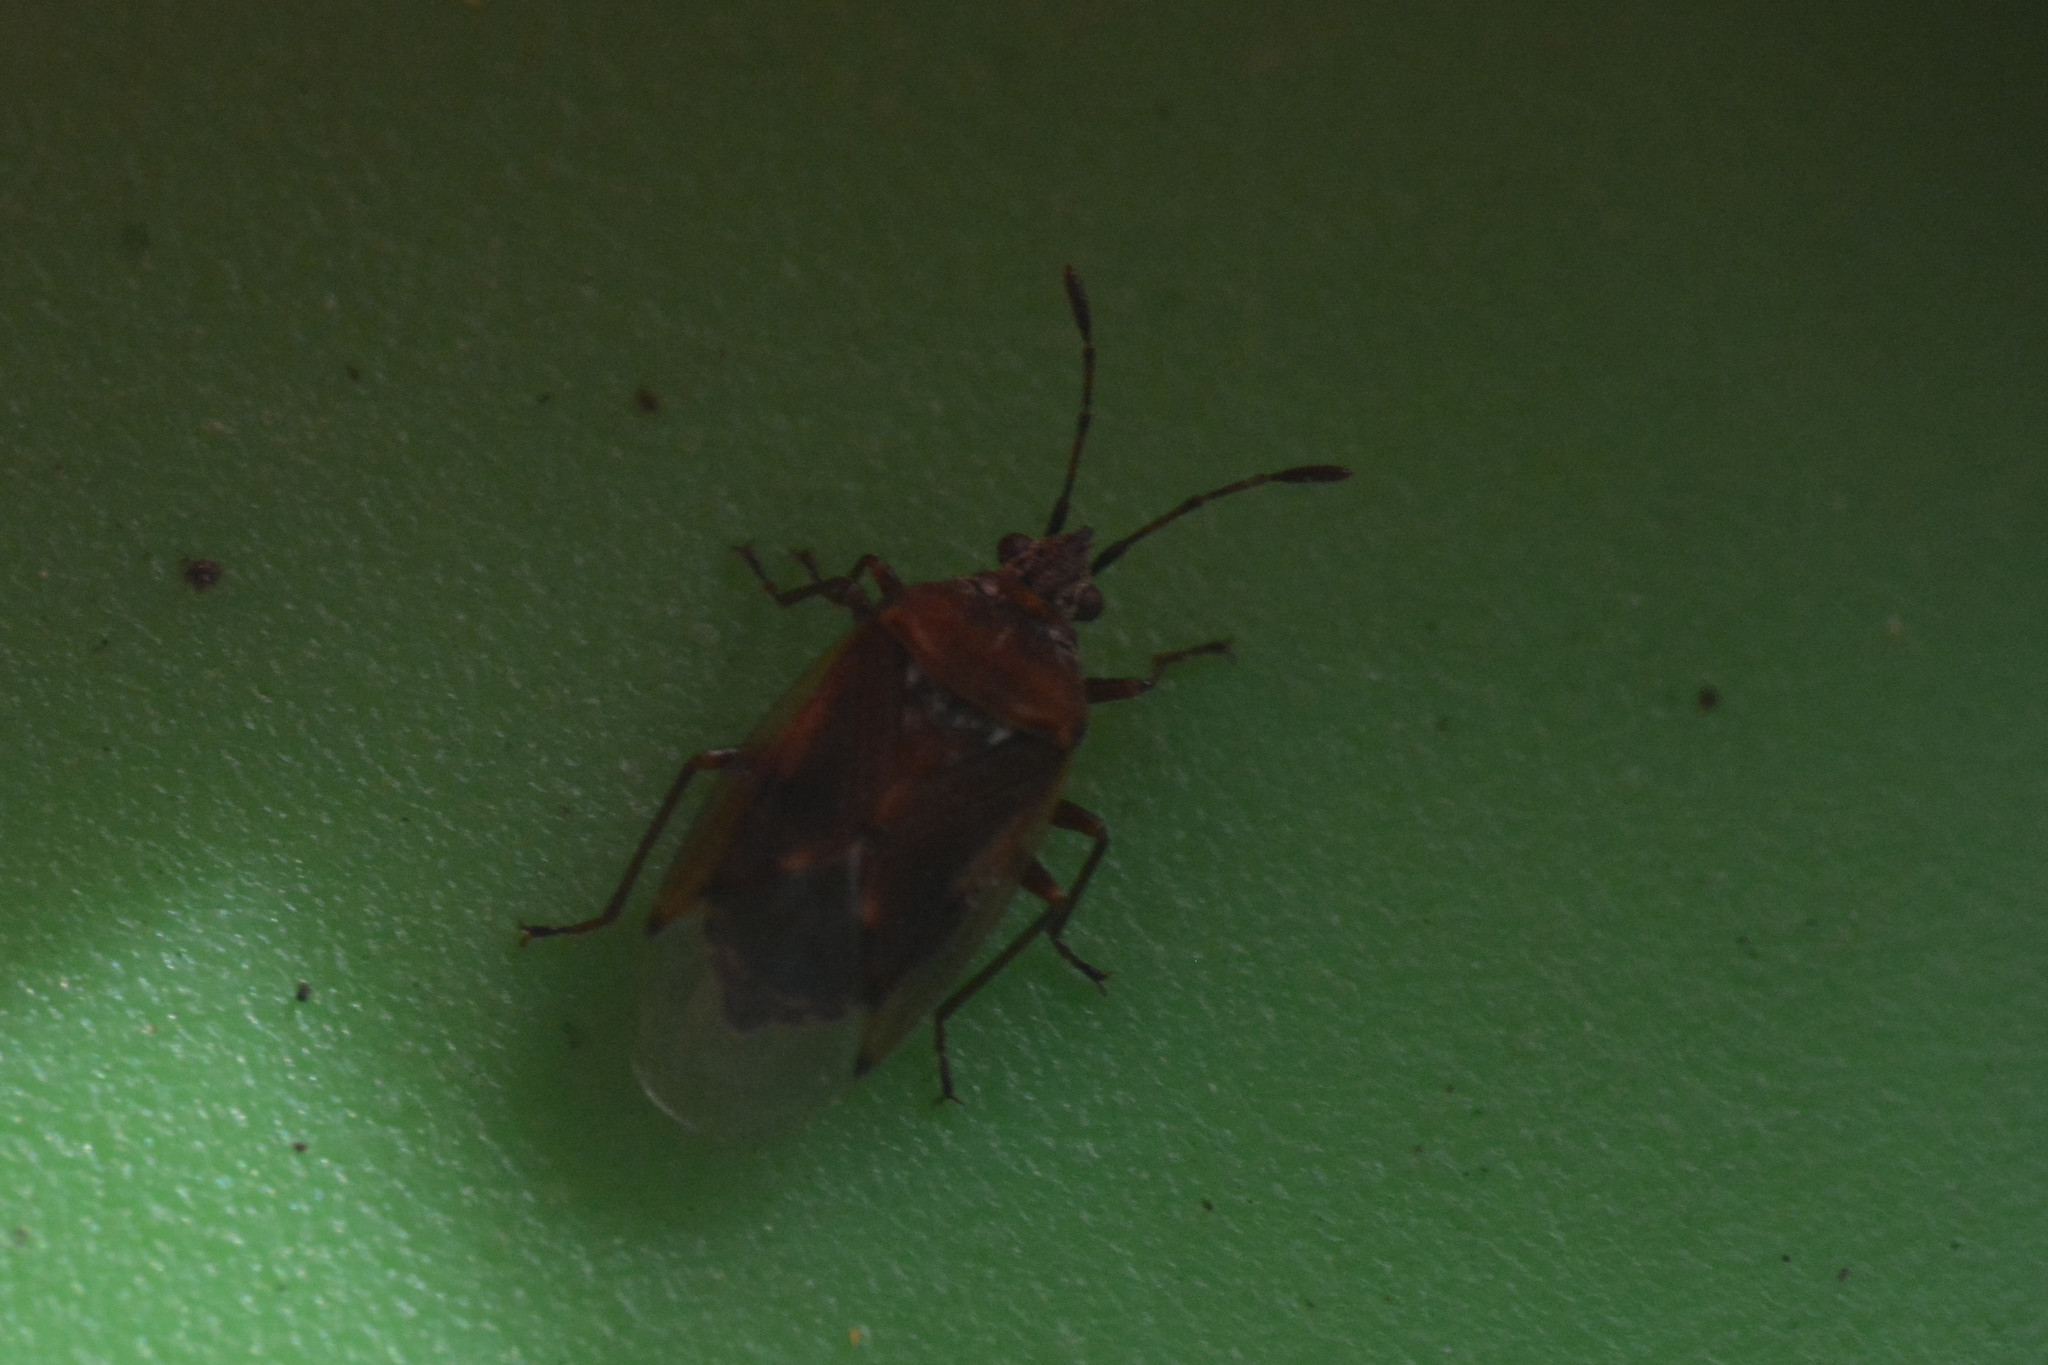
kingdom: Animalia
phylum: Arthropoda
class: Insecta
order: Hemiptera
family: Lygaeidae
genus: Kleidocerys
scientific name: Kleidocerys resedae
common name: Birch catkin bug
